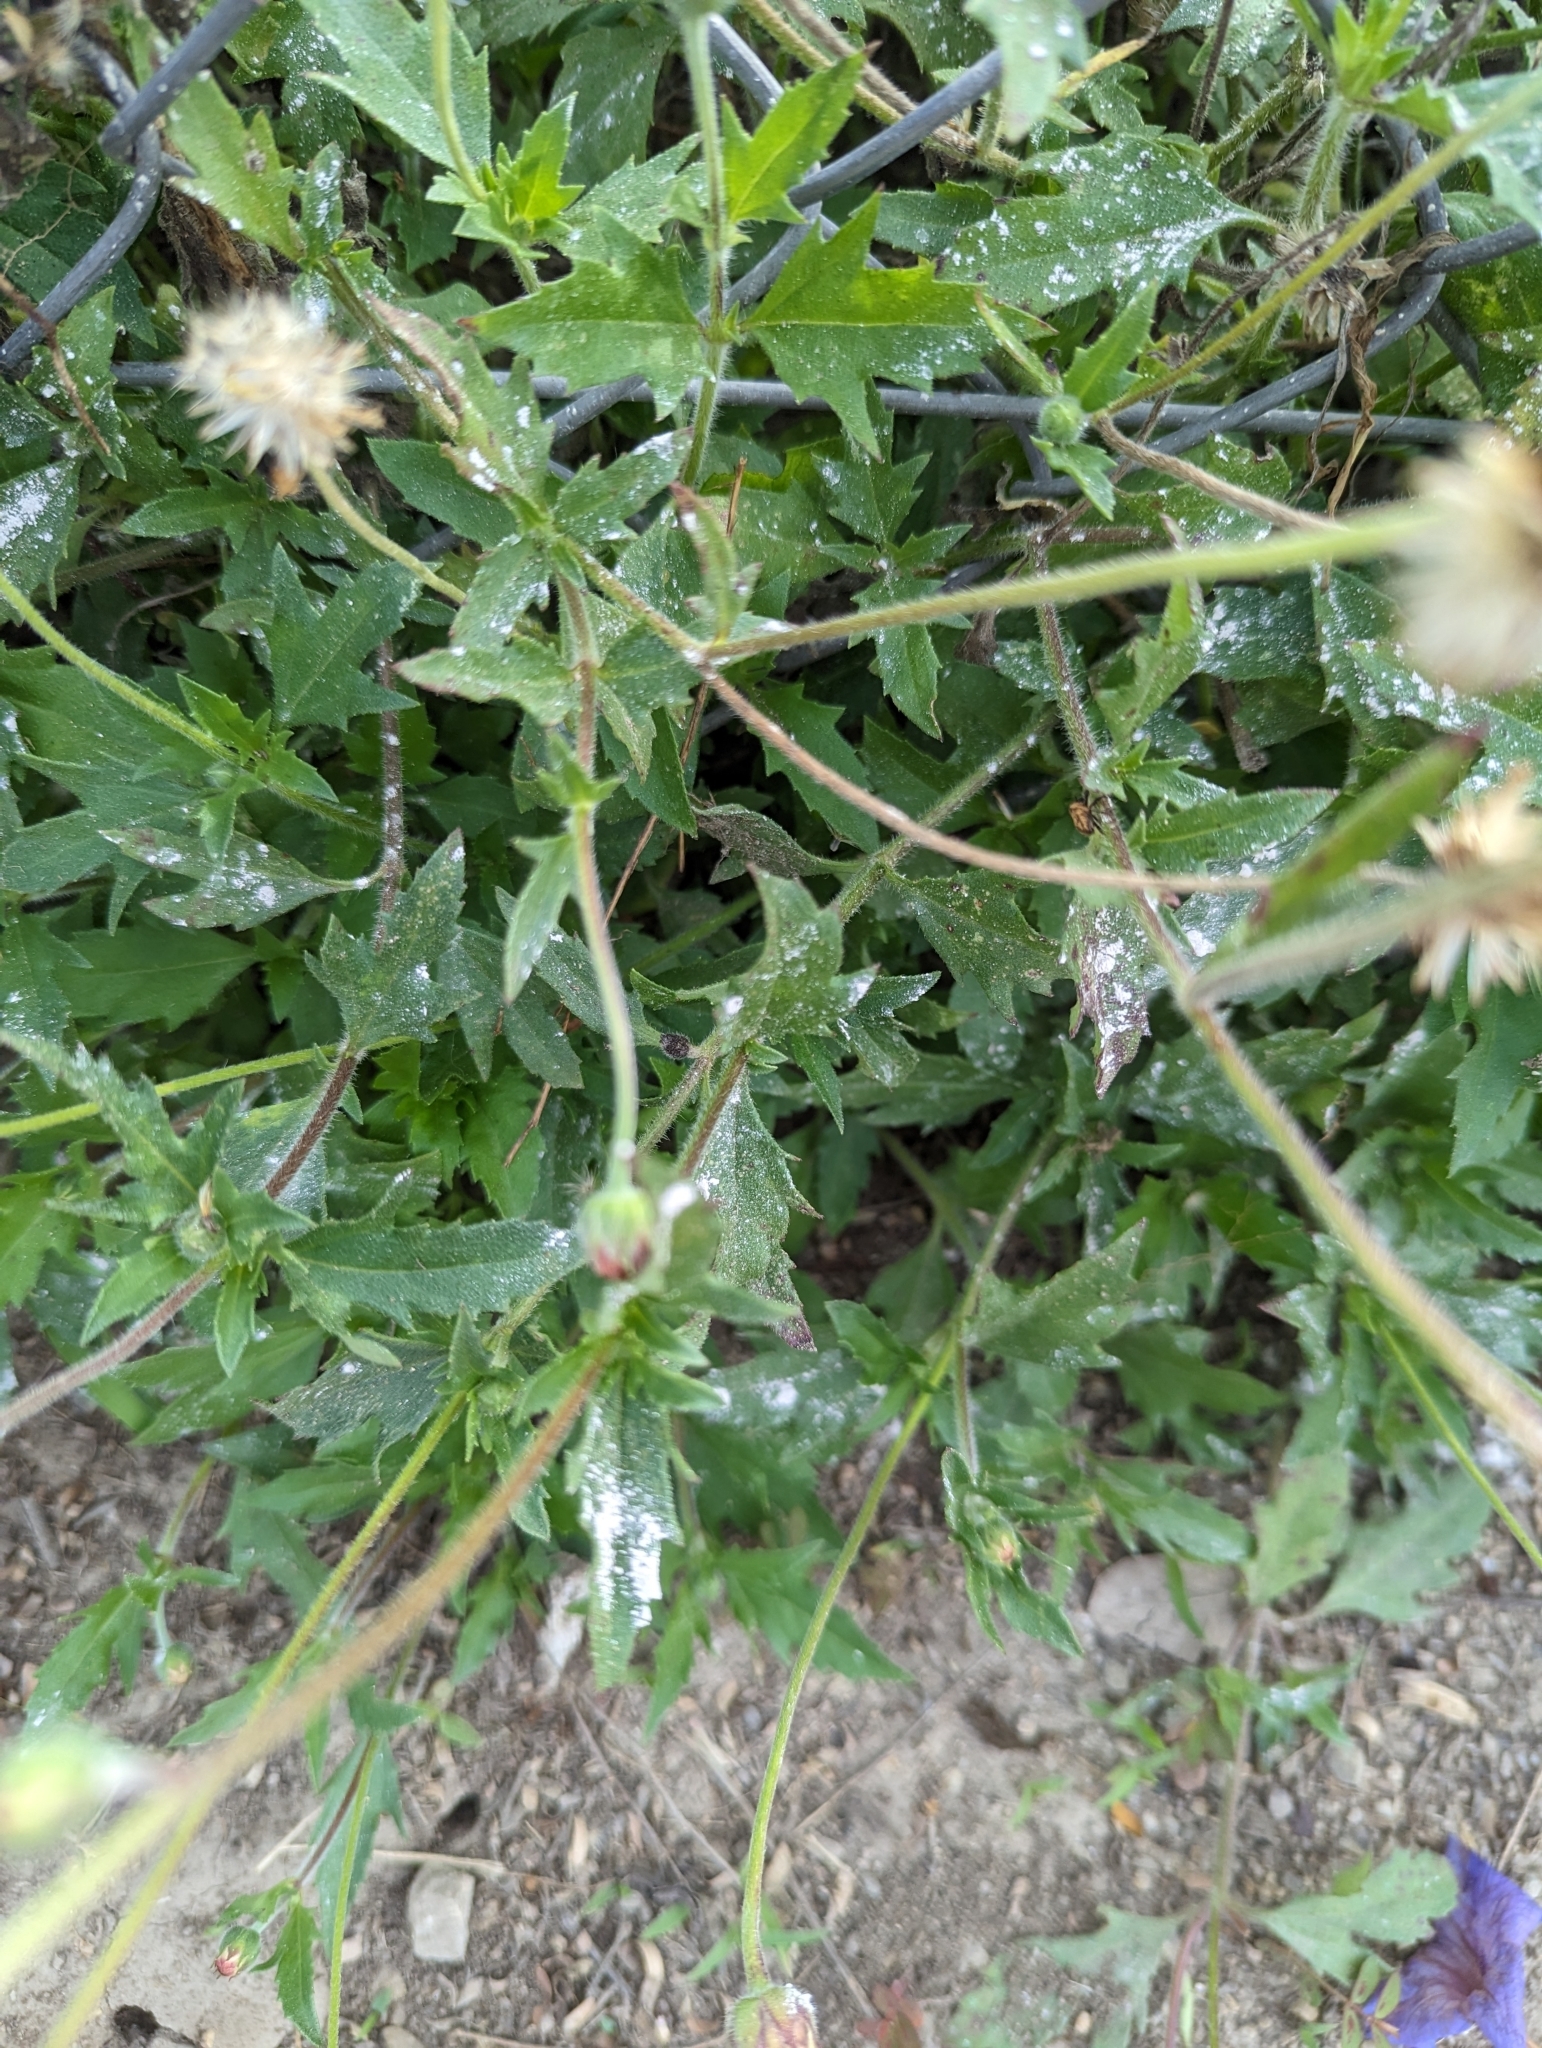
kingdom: Plantae
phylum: Tracheophyta
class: Magnoliopsida
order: Asterales
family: Asteraceae
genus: Tridax
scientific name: Tridax procumbens
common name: Coatbuttons
